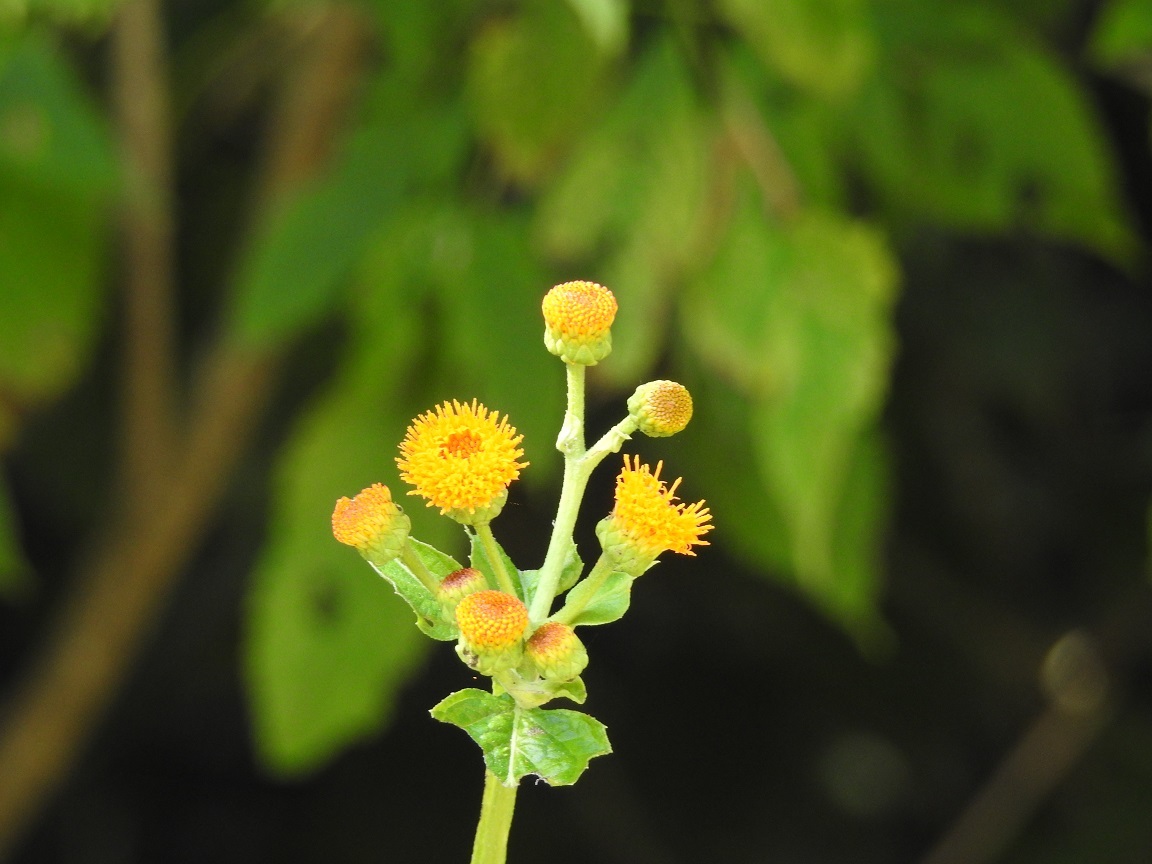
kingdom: Plantae
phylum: Tracheophyta
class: Magnoliopsida
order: Asterales
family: Asteraceae
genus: Verbesina
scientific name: Verbesina ovatifolia
